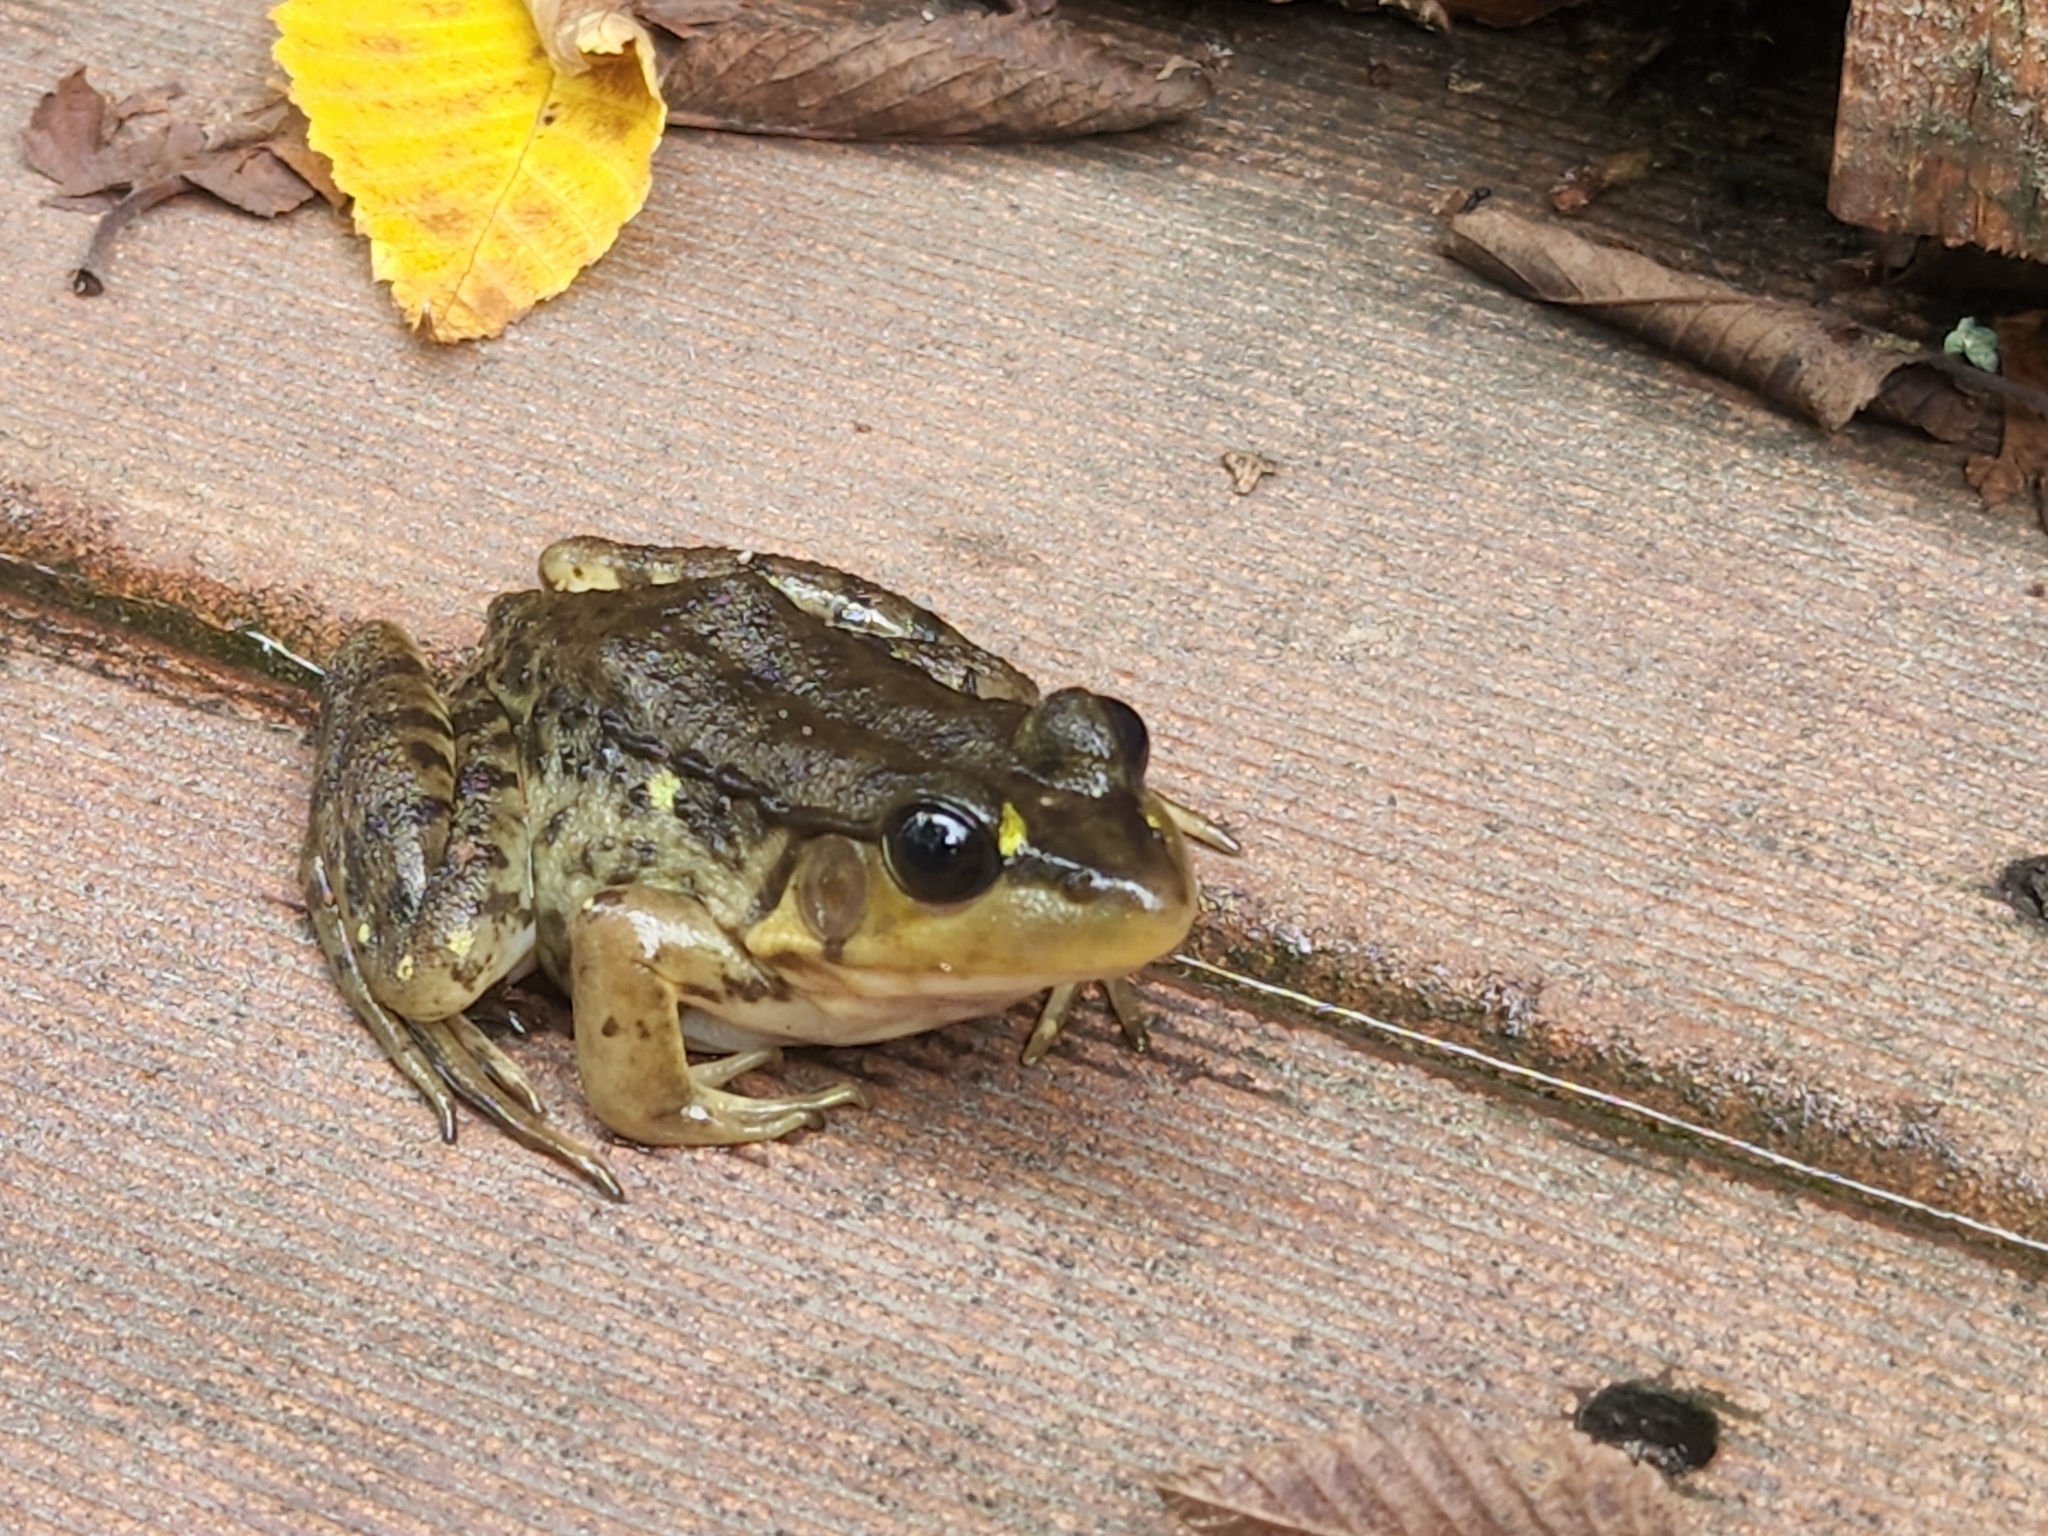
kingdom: Animalia
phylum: Chordata
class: Amphibia
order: Anura
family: Ranidae
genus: Lithobates
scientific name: Lithobates clamitans
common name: Green frog
